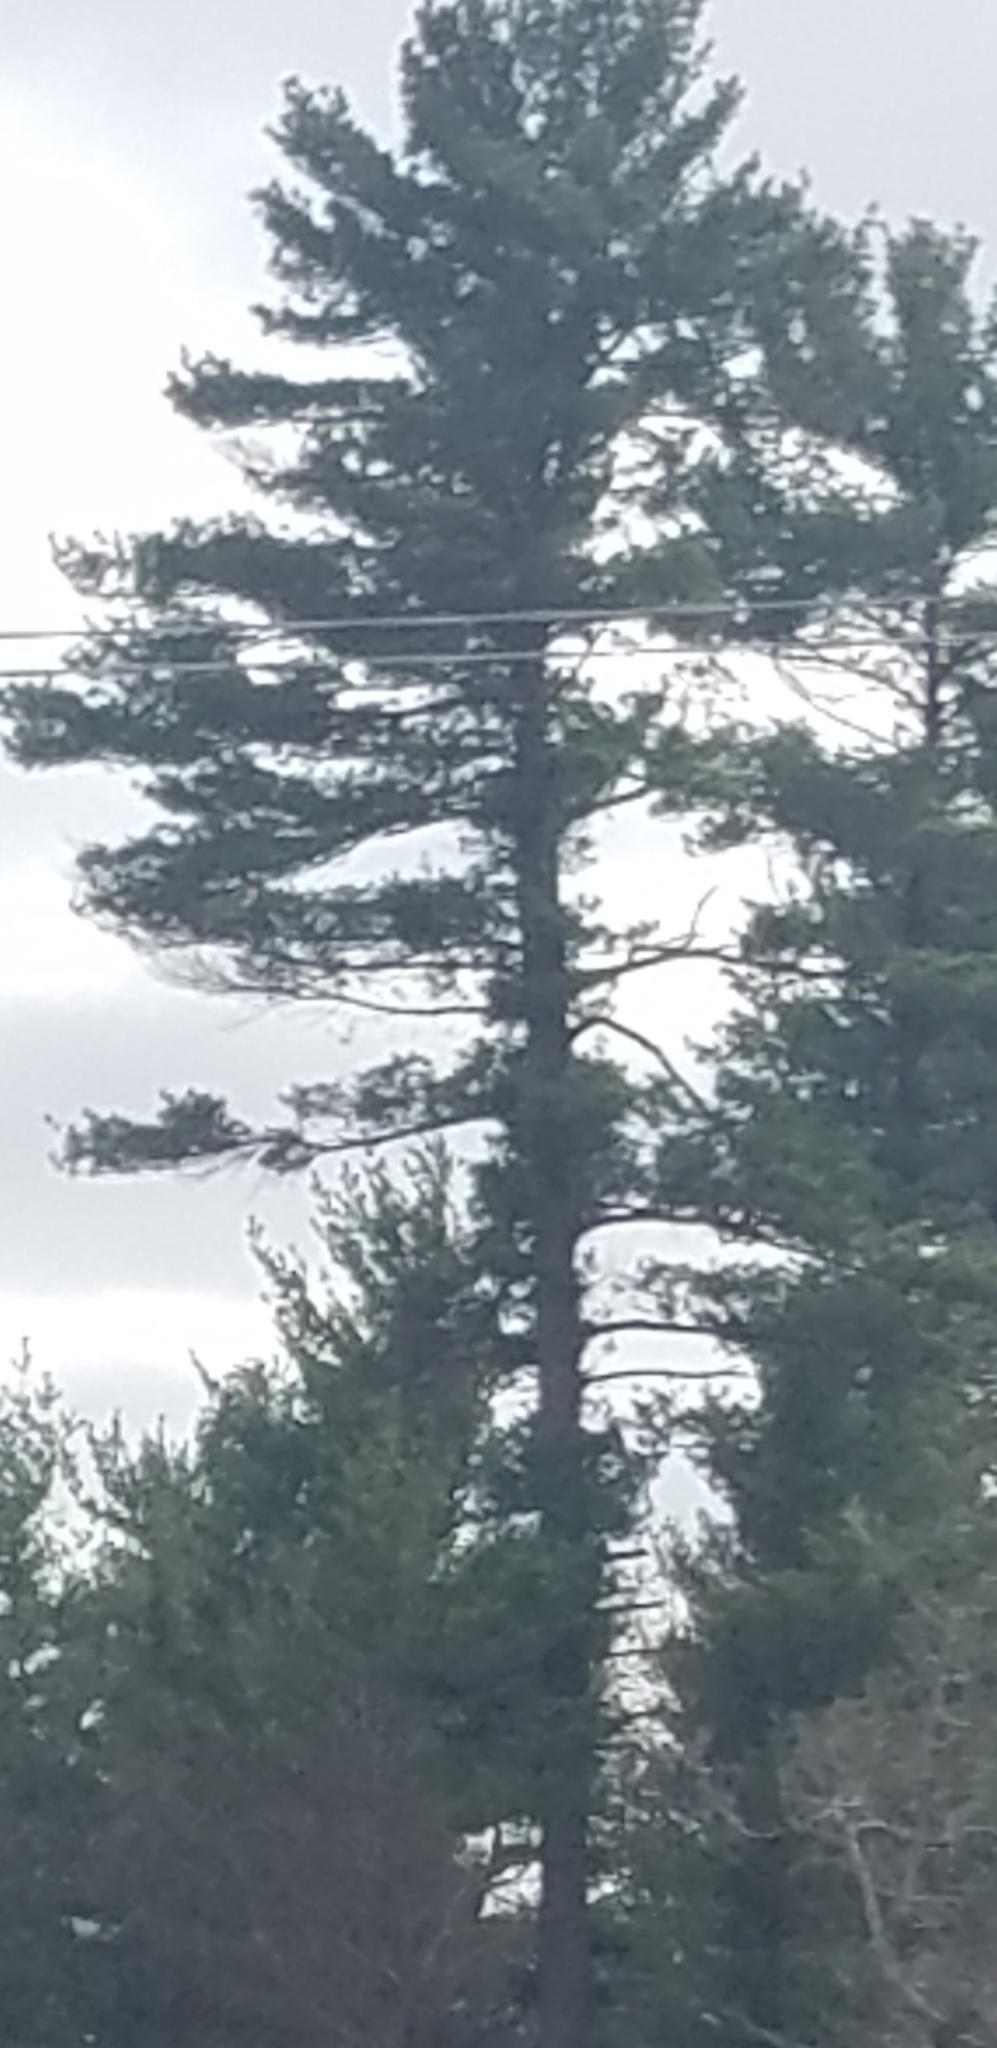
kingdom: Plantae
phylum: Tracheophyta
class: Pinopsida
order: Pinales
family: Pinaceae
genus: Pinus
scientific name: Pinus strobus
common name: Weymouth pine
